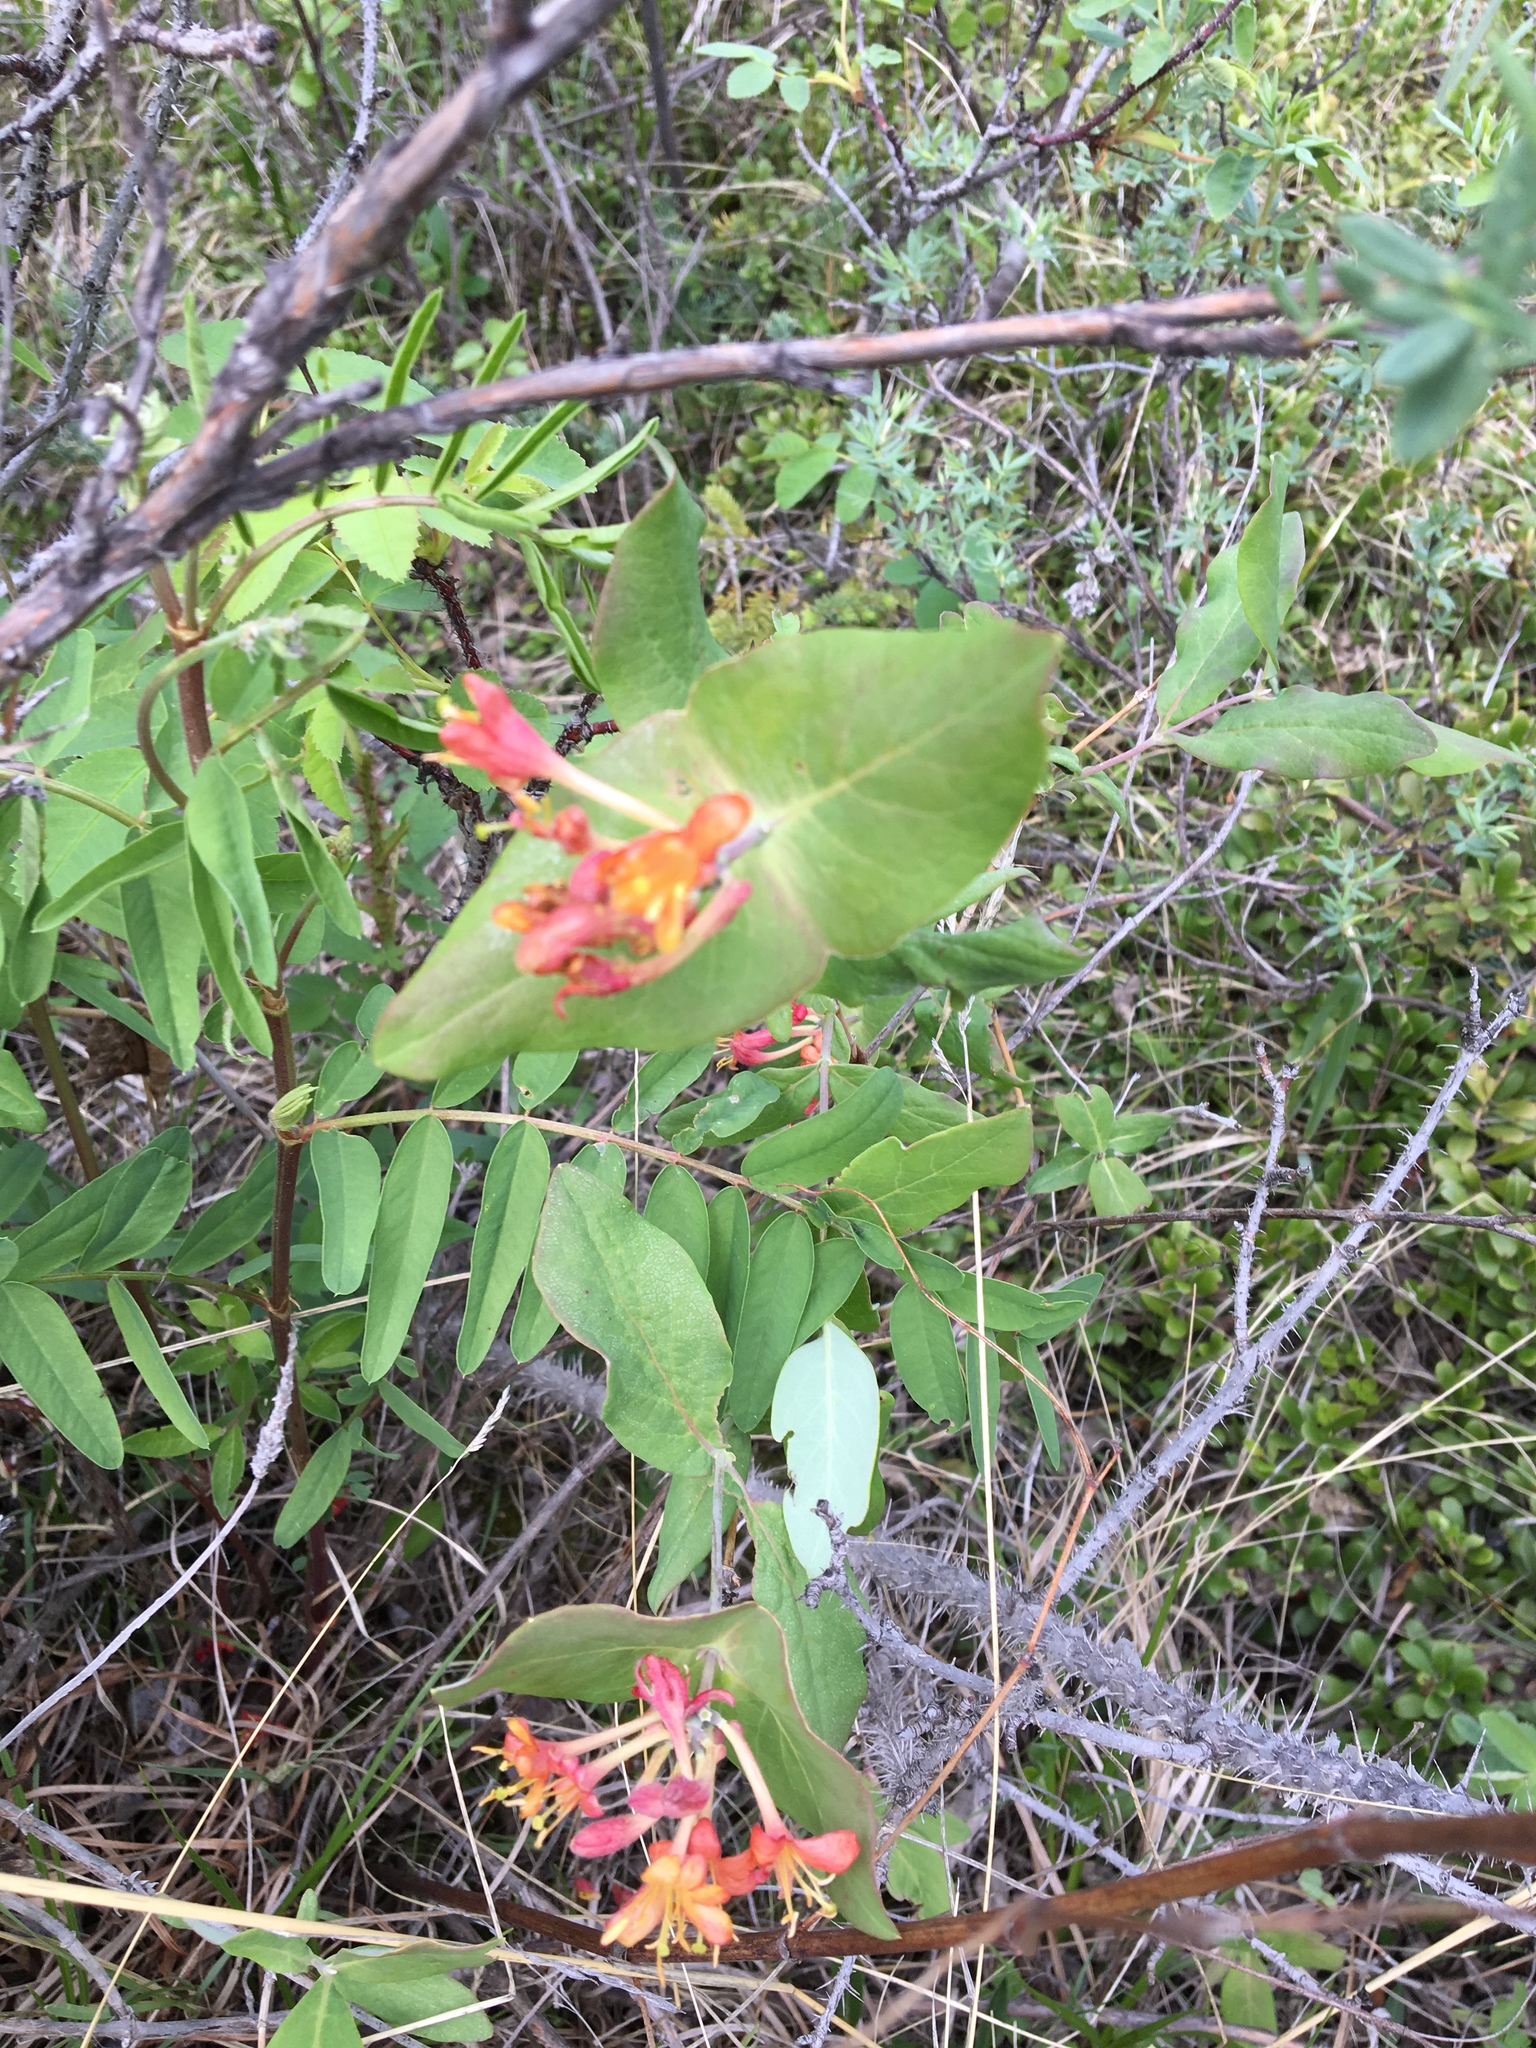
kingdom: Plantae
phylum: Tracheophyta
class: Magnoliopsida
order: Dipsacales
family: Caprifoliaceae
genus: Lonicera
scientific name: Lonicera dioica
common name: Limber honeysuckle
